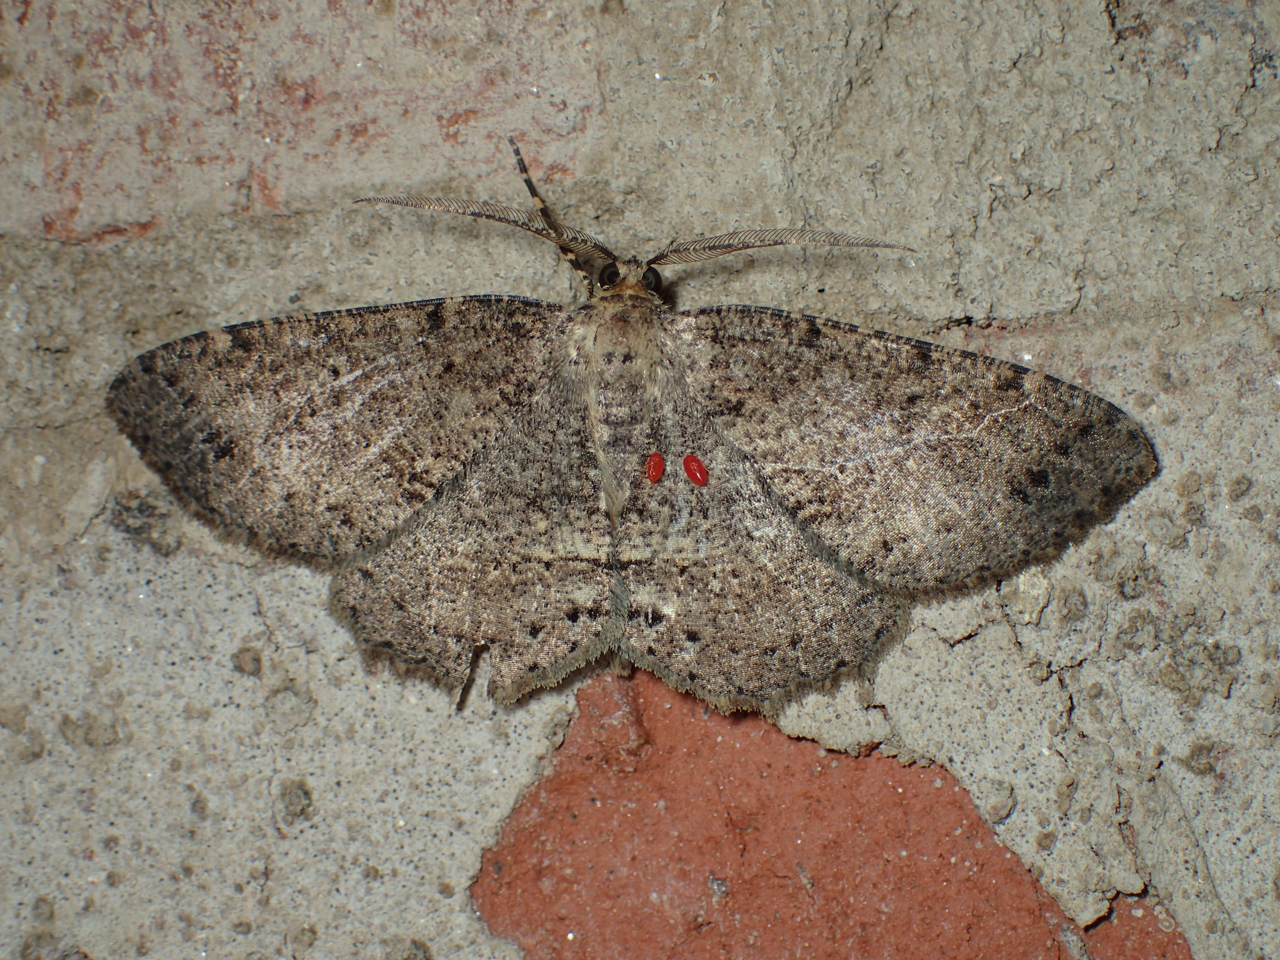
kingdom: Animalia
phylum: Arthropoda
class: Insecta
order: Lepidoptera
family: Geometridae
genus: Melanolophia
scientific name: Melanolophia canadaria
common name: Canadian melanolophia
